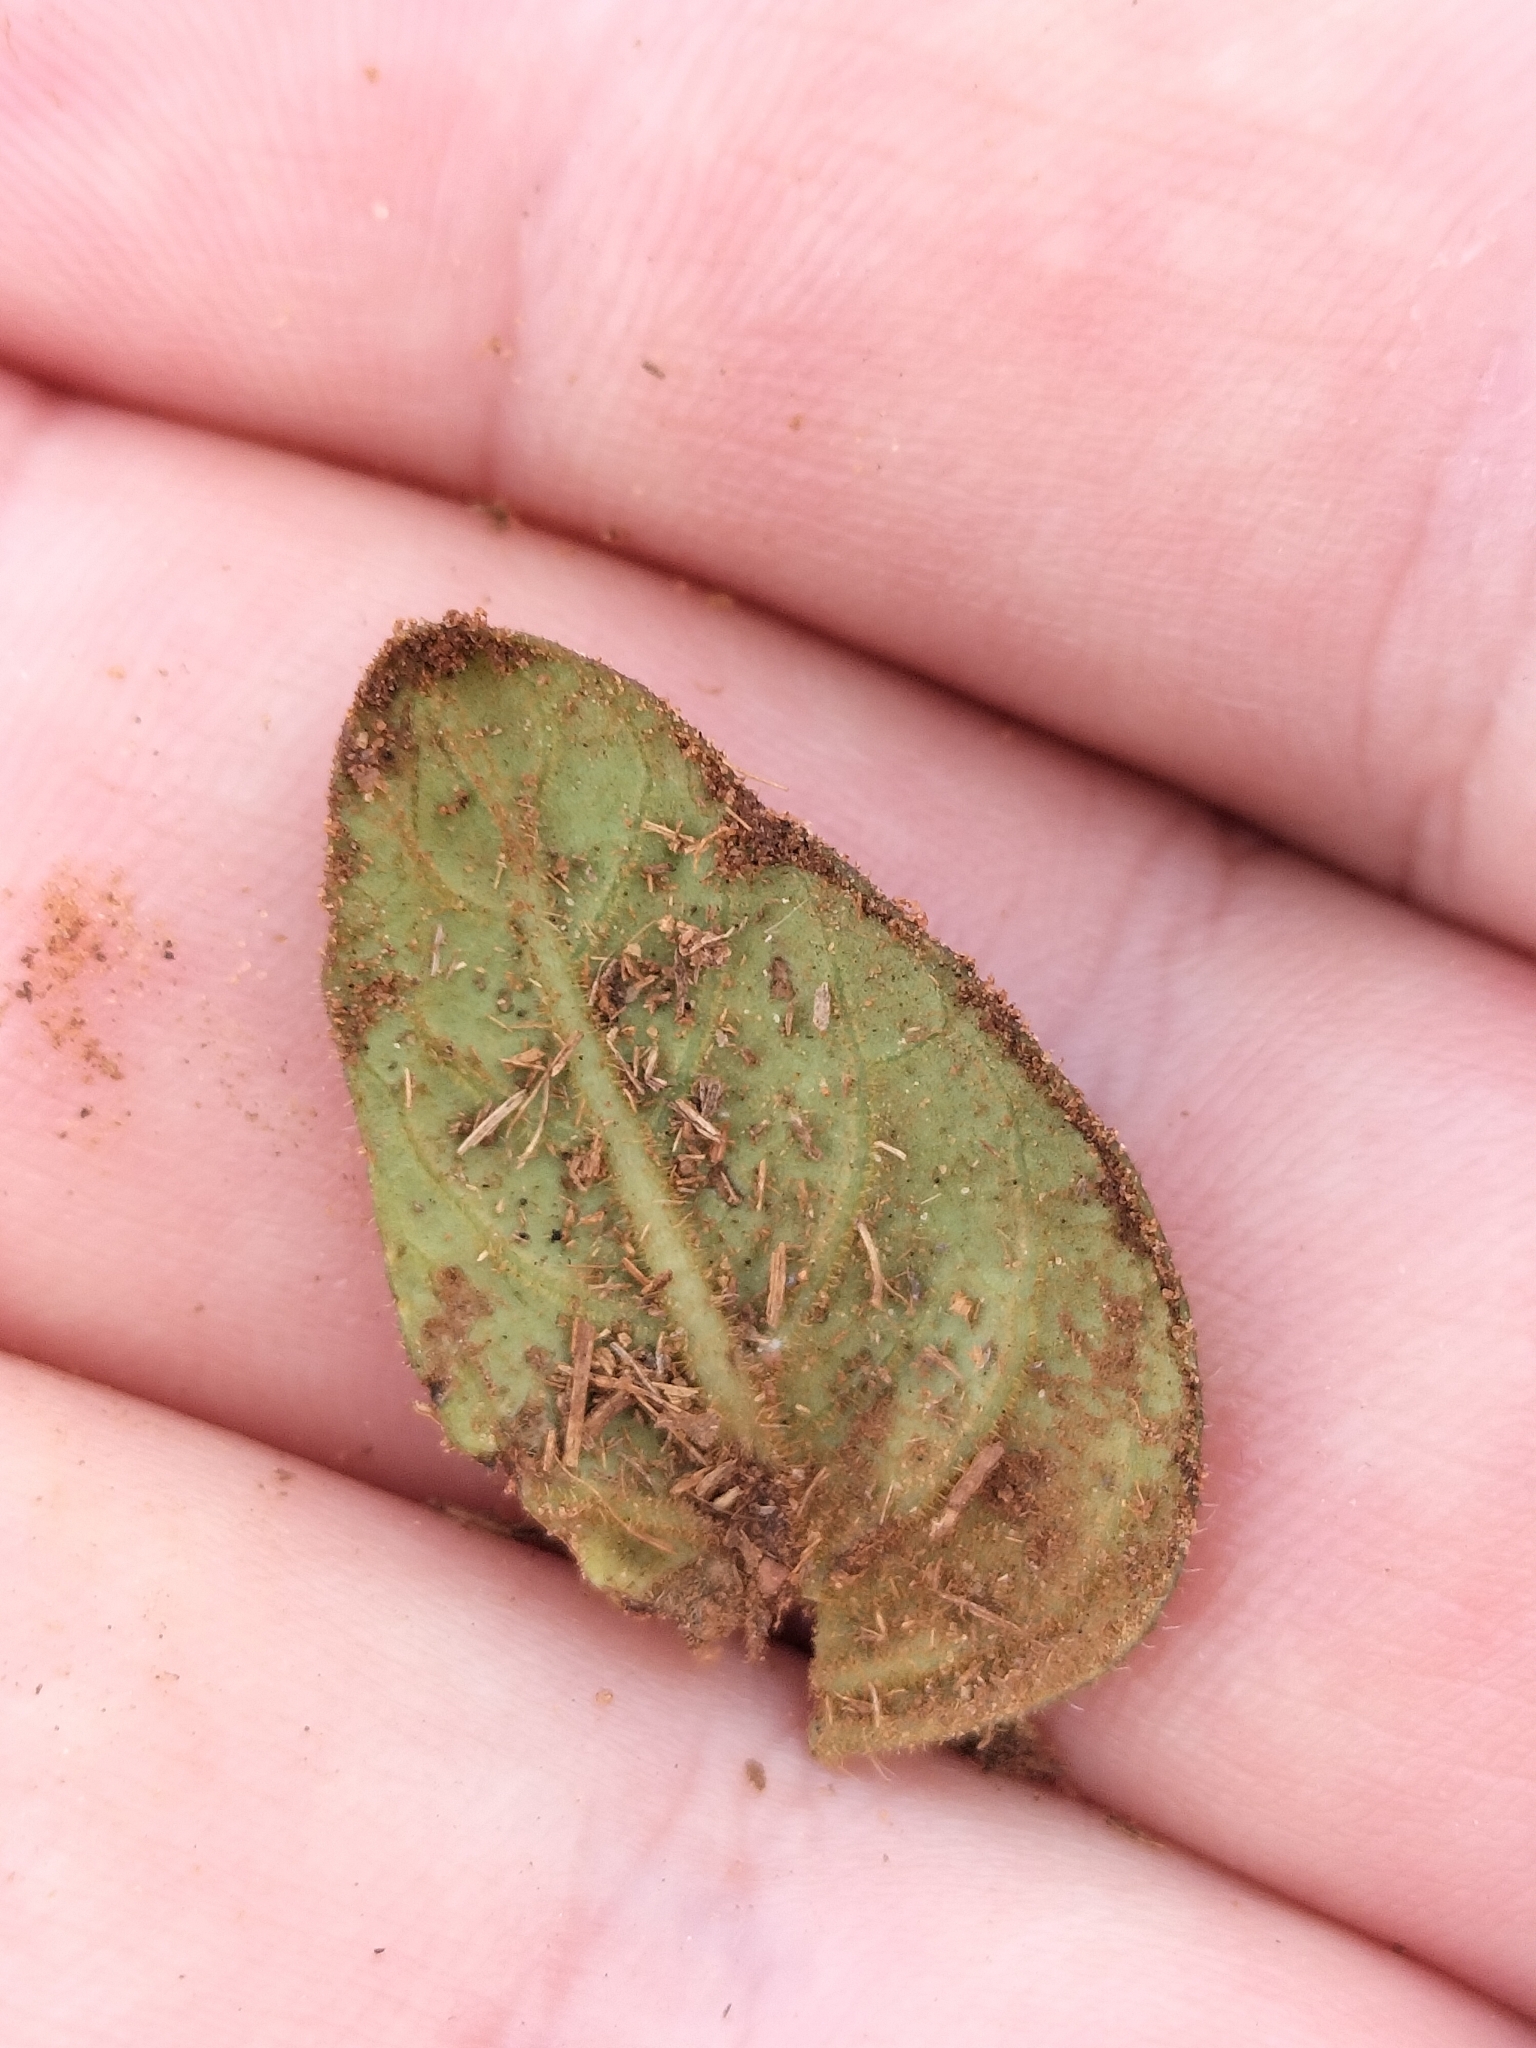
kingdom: Plantae
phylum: Tracheophyta
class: Magnoliopsida
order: Lamiales
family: Acanthaceae
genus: Brunoniella
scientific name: Brunoniella acaulis
